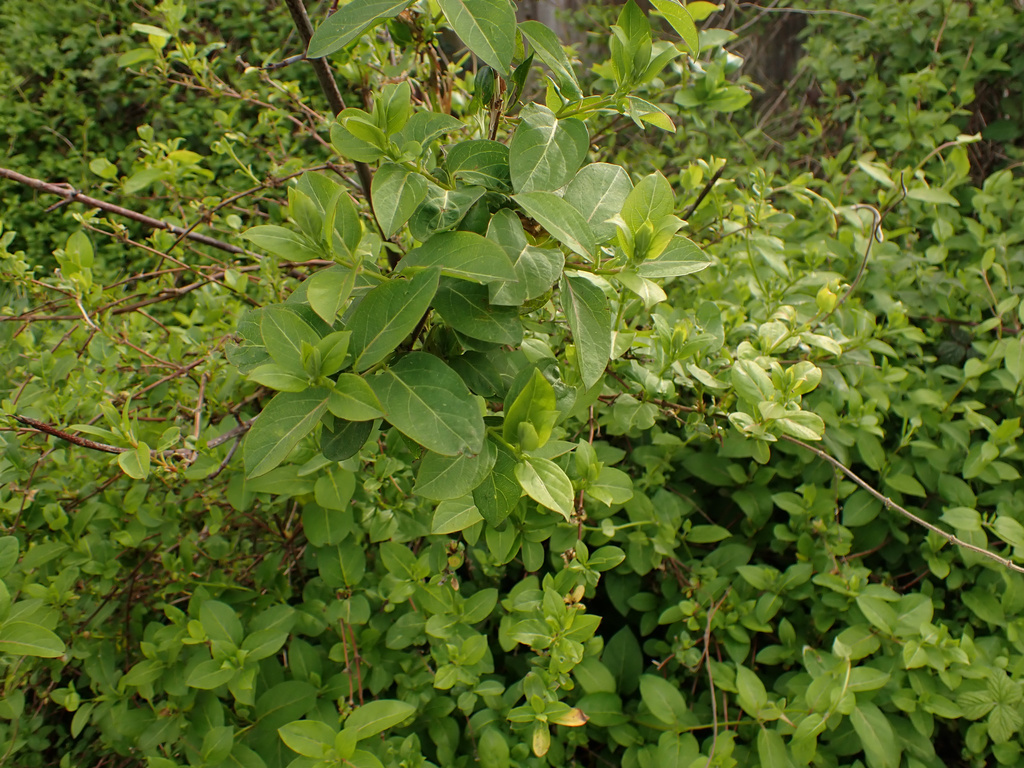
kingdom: Plantae
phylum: Tracheophyta
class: Magnoliopsida
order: Dipsacales
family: Caprifoliaceae
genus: Lonicera
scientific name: Lonicera japonica
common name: Japanese honeysuckle
